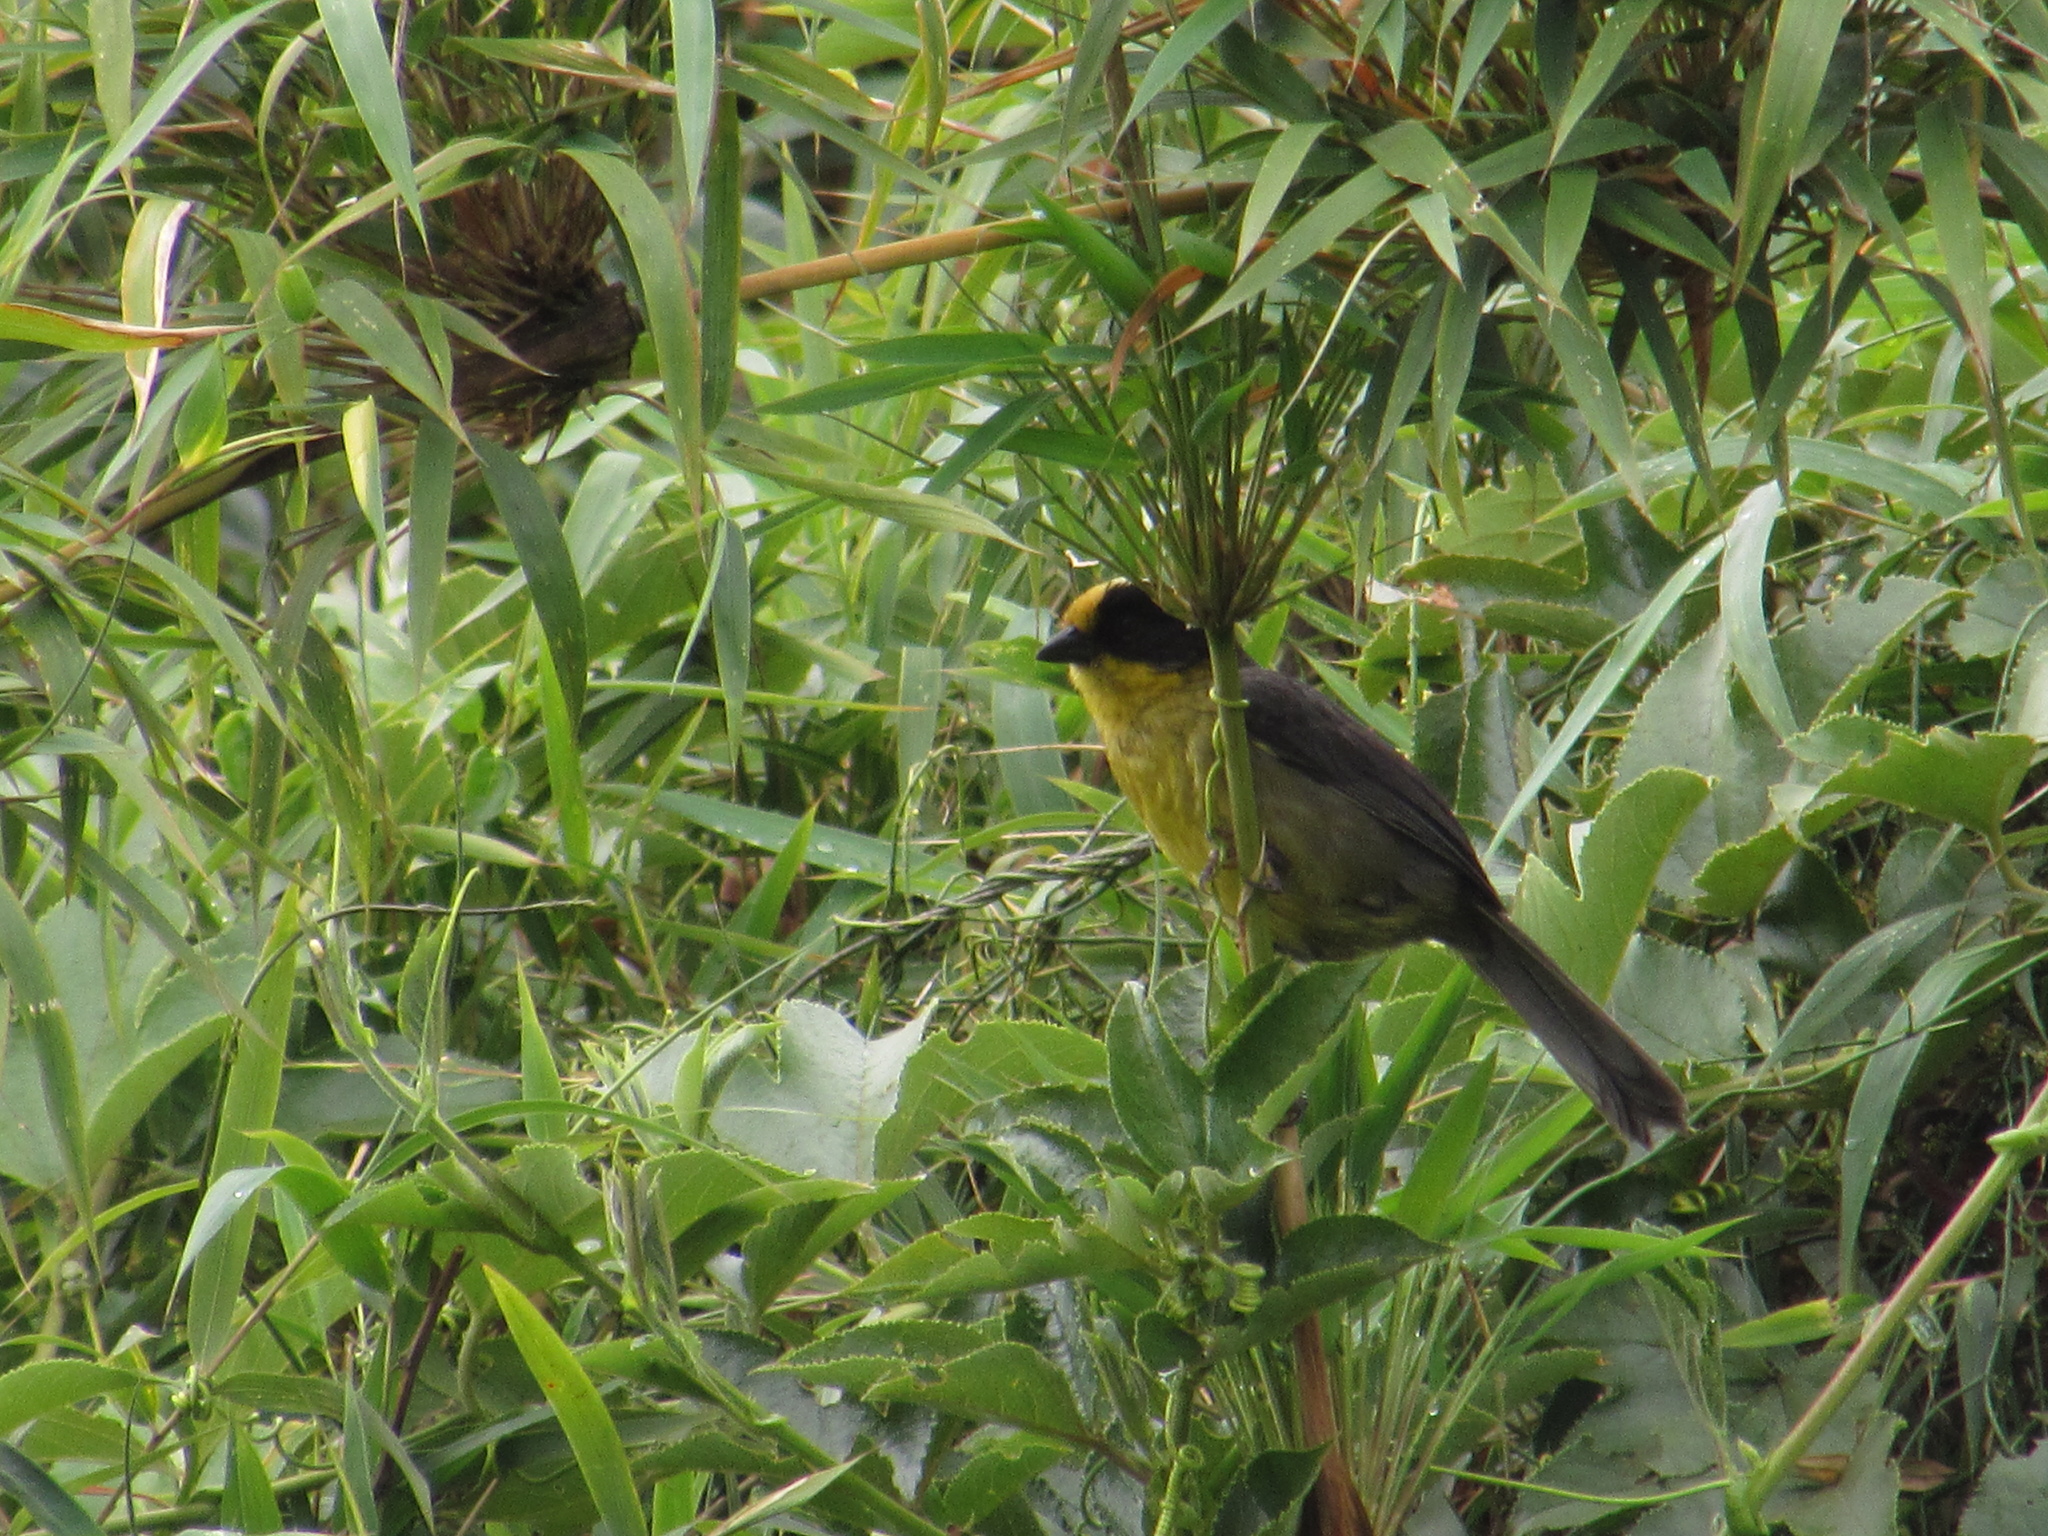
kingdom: Animalia
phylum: Chordata
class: Aves
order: Passeriformes
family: Passerellidae
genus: Atlapetes
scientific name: Atlapetes pallidinucha
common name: Pale-naped brushfinch
